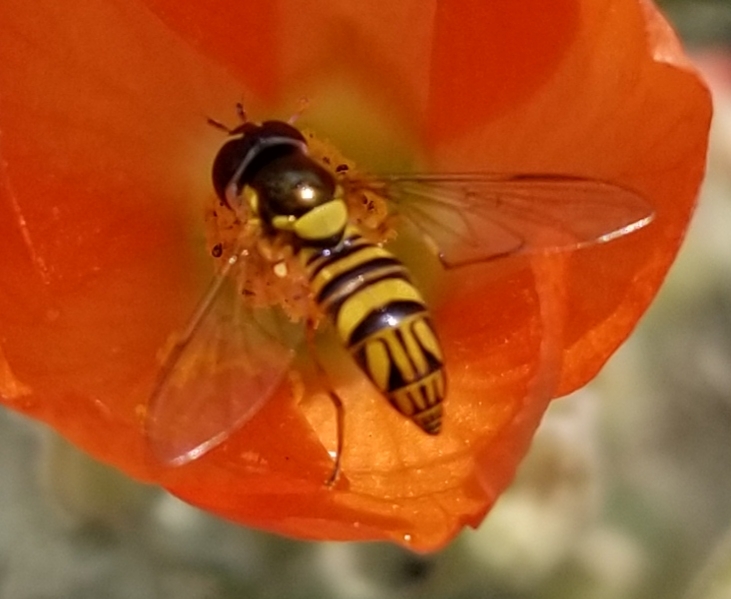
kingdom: Animalia
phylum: Arthropoda
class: Insecta
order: Diptera
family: Syrphidae
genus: Allograpta
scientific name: Allograpta obliqua
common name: Common oblique syrphid
